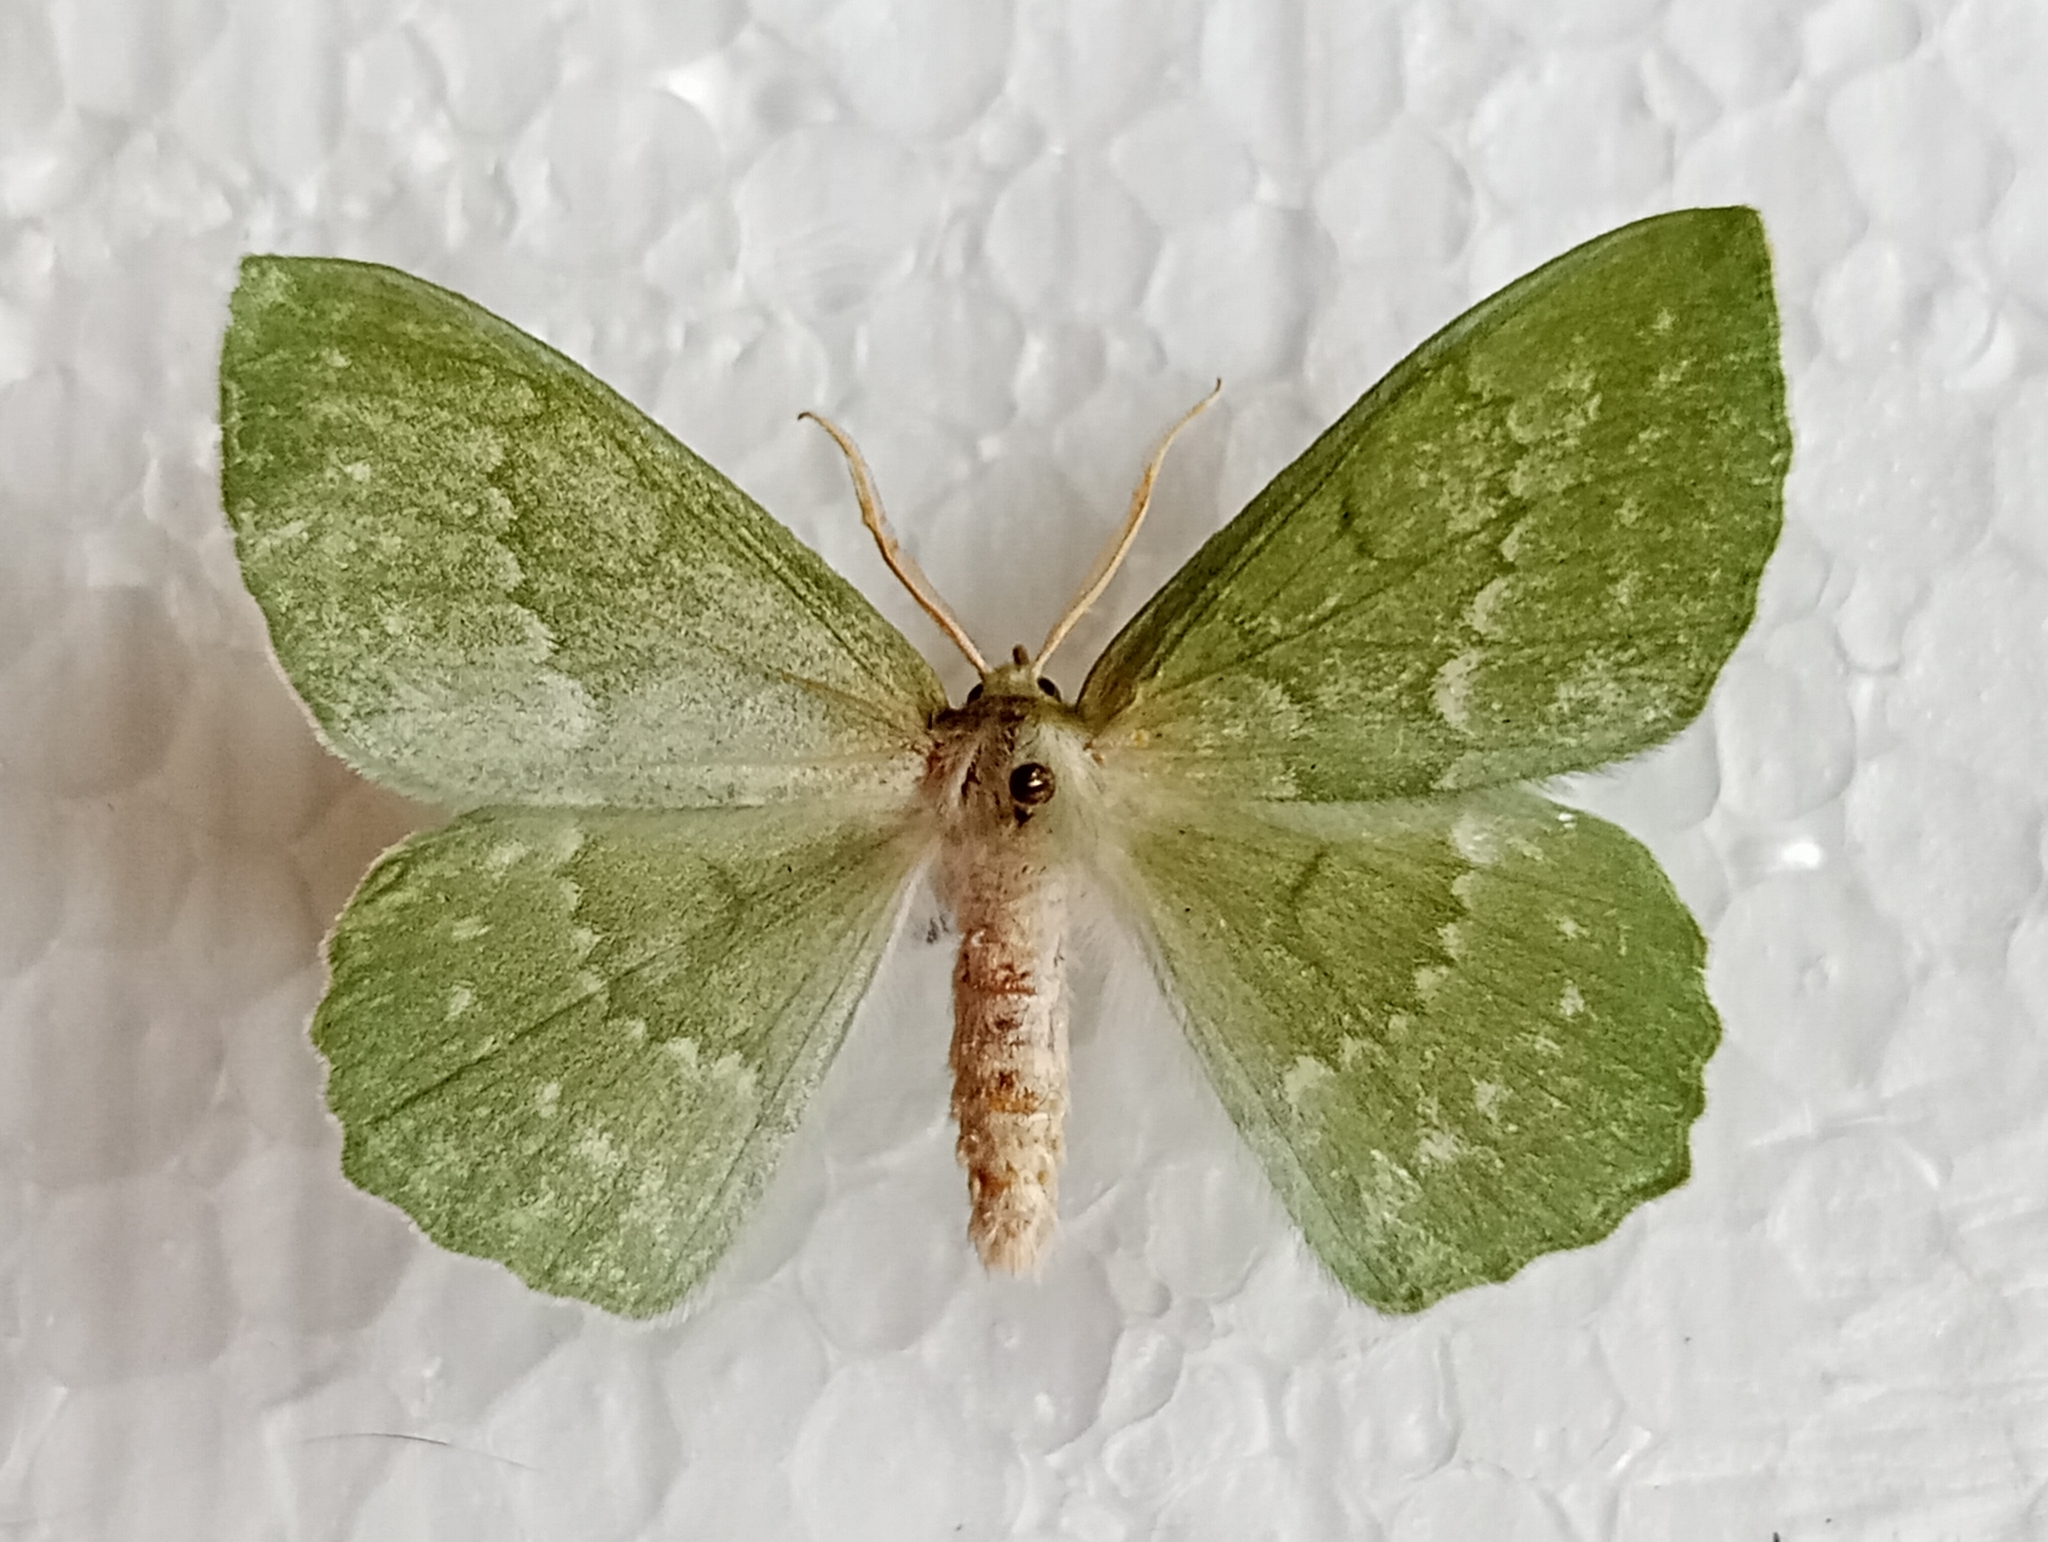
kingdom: Animalia
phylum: Arthropoda
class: Insecta
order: Lepidoptera
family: Geometridae
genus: Geometra
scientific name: Geometra papilionaria
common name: Large emerald
